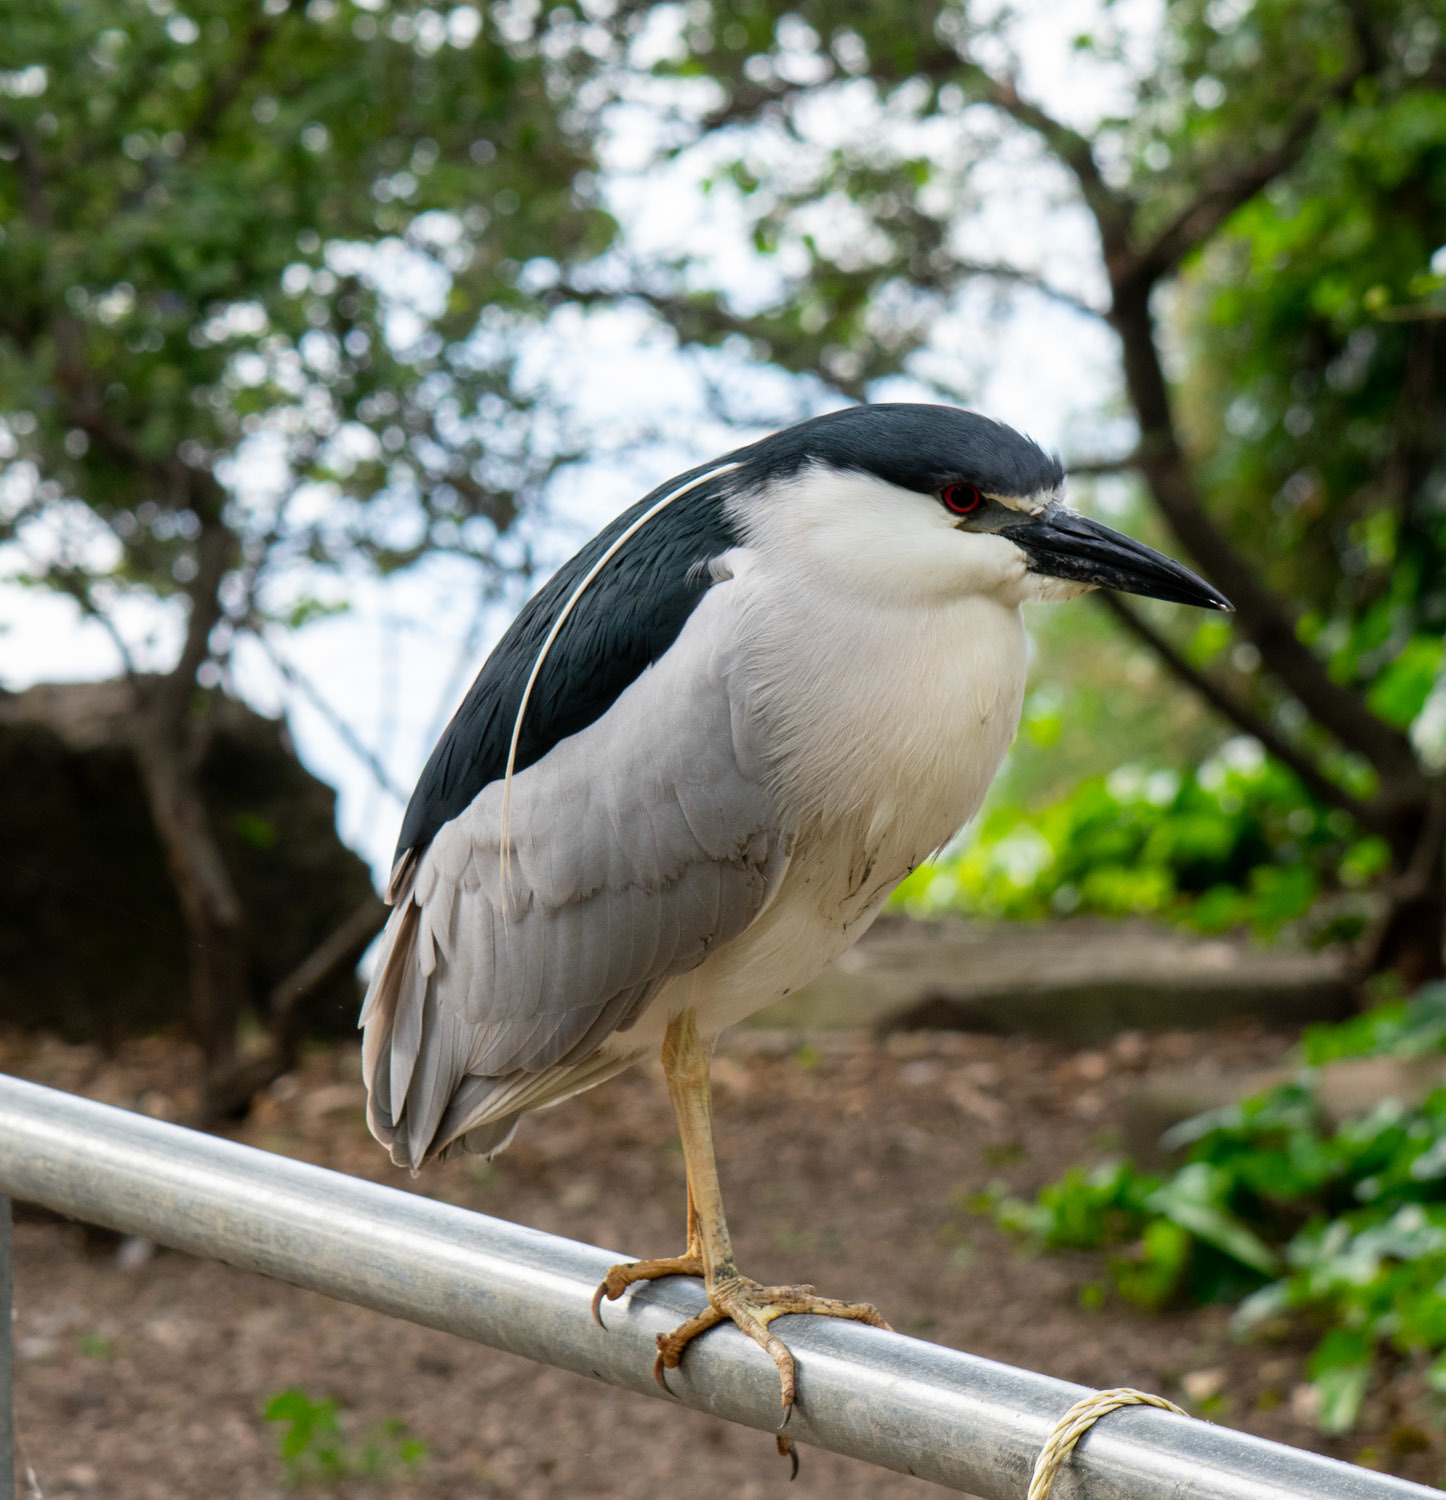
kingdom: Animalia
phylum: Chordata
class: Aves
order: Pelecaniformes
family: Ardeidae
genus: Nycticorax
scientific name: Nycticorax nycticorax
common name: Black-crowned night heron
